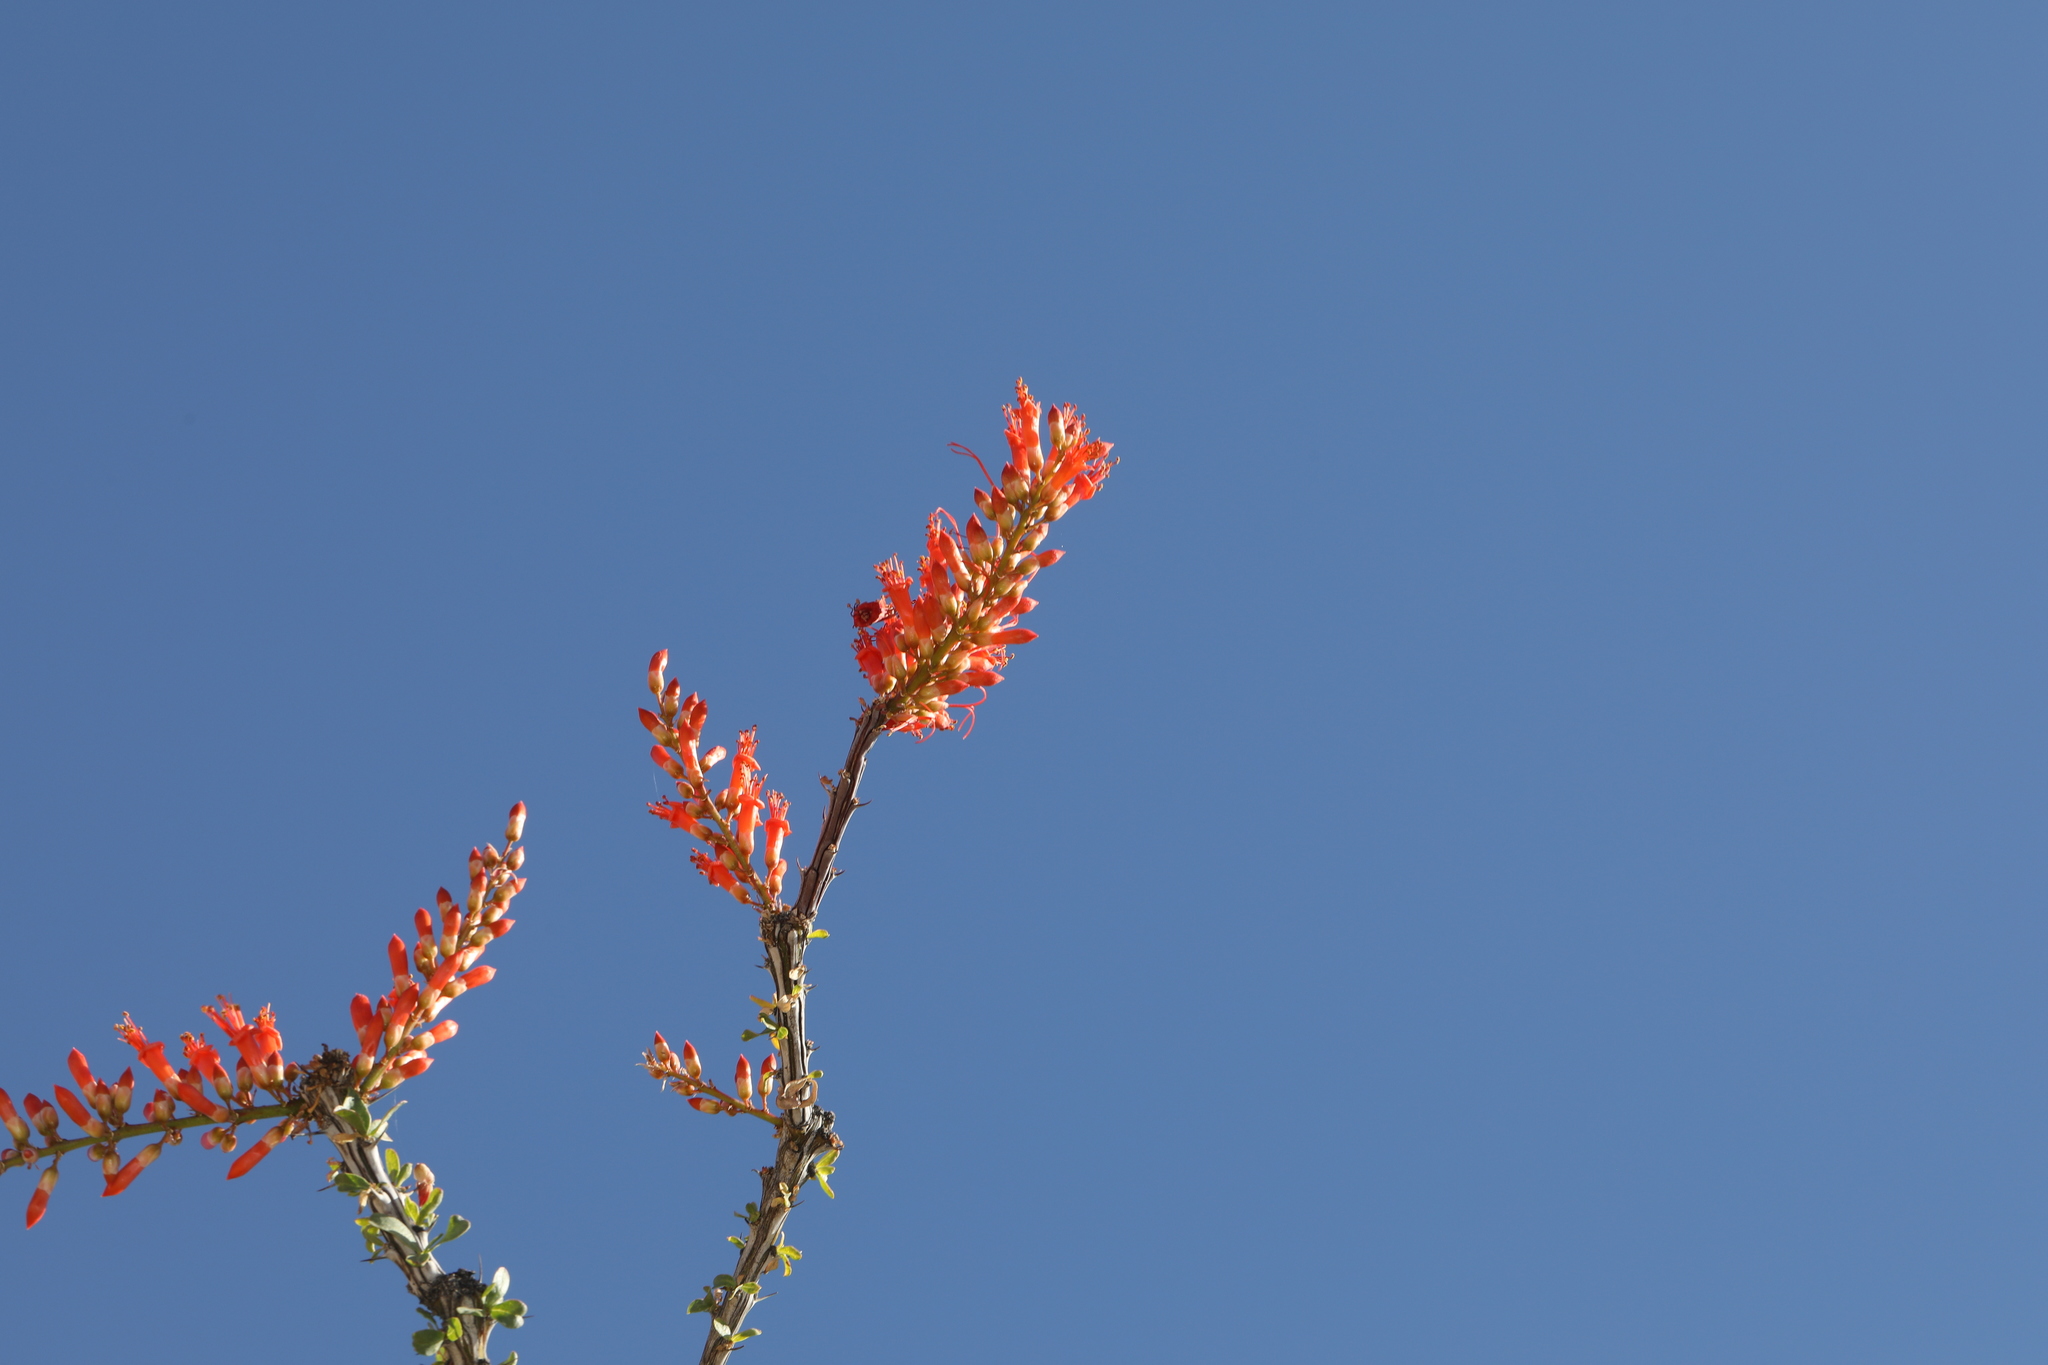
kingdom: Plantae
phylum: Tracheophyta
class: Magnoliopsida
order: Ericales
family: Fouquieriaceae
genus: Fouquieria
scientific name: Fouquieria splendens
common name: Vine-cactus
